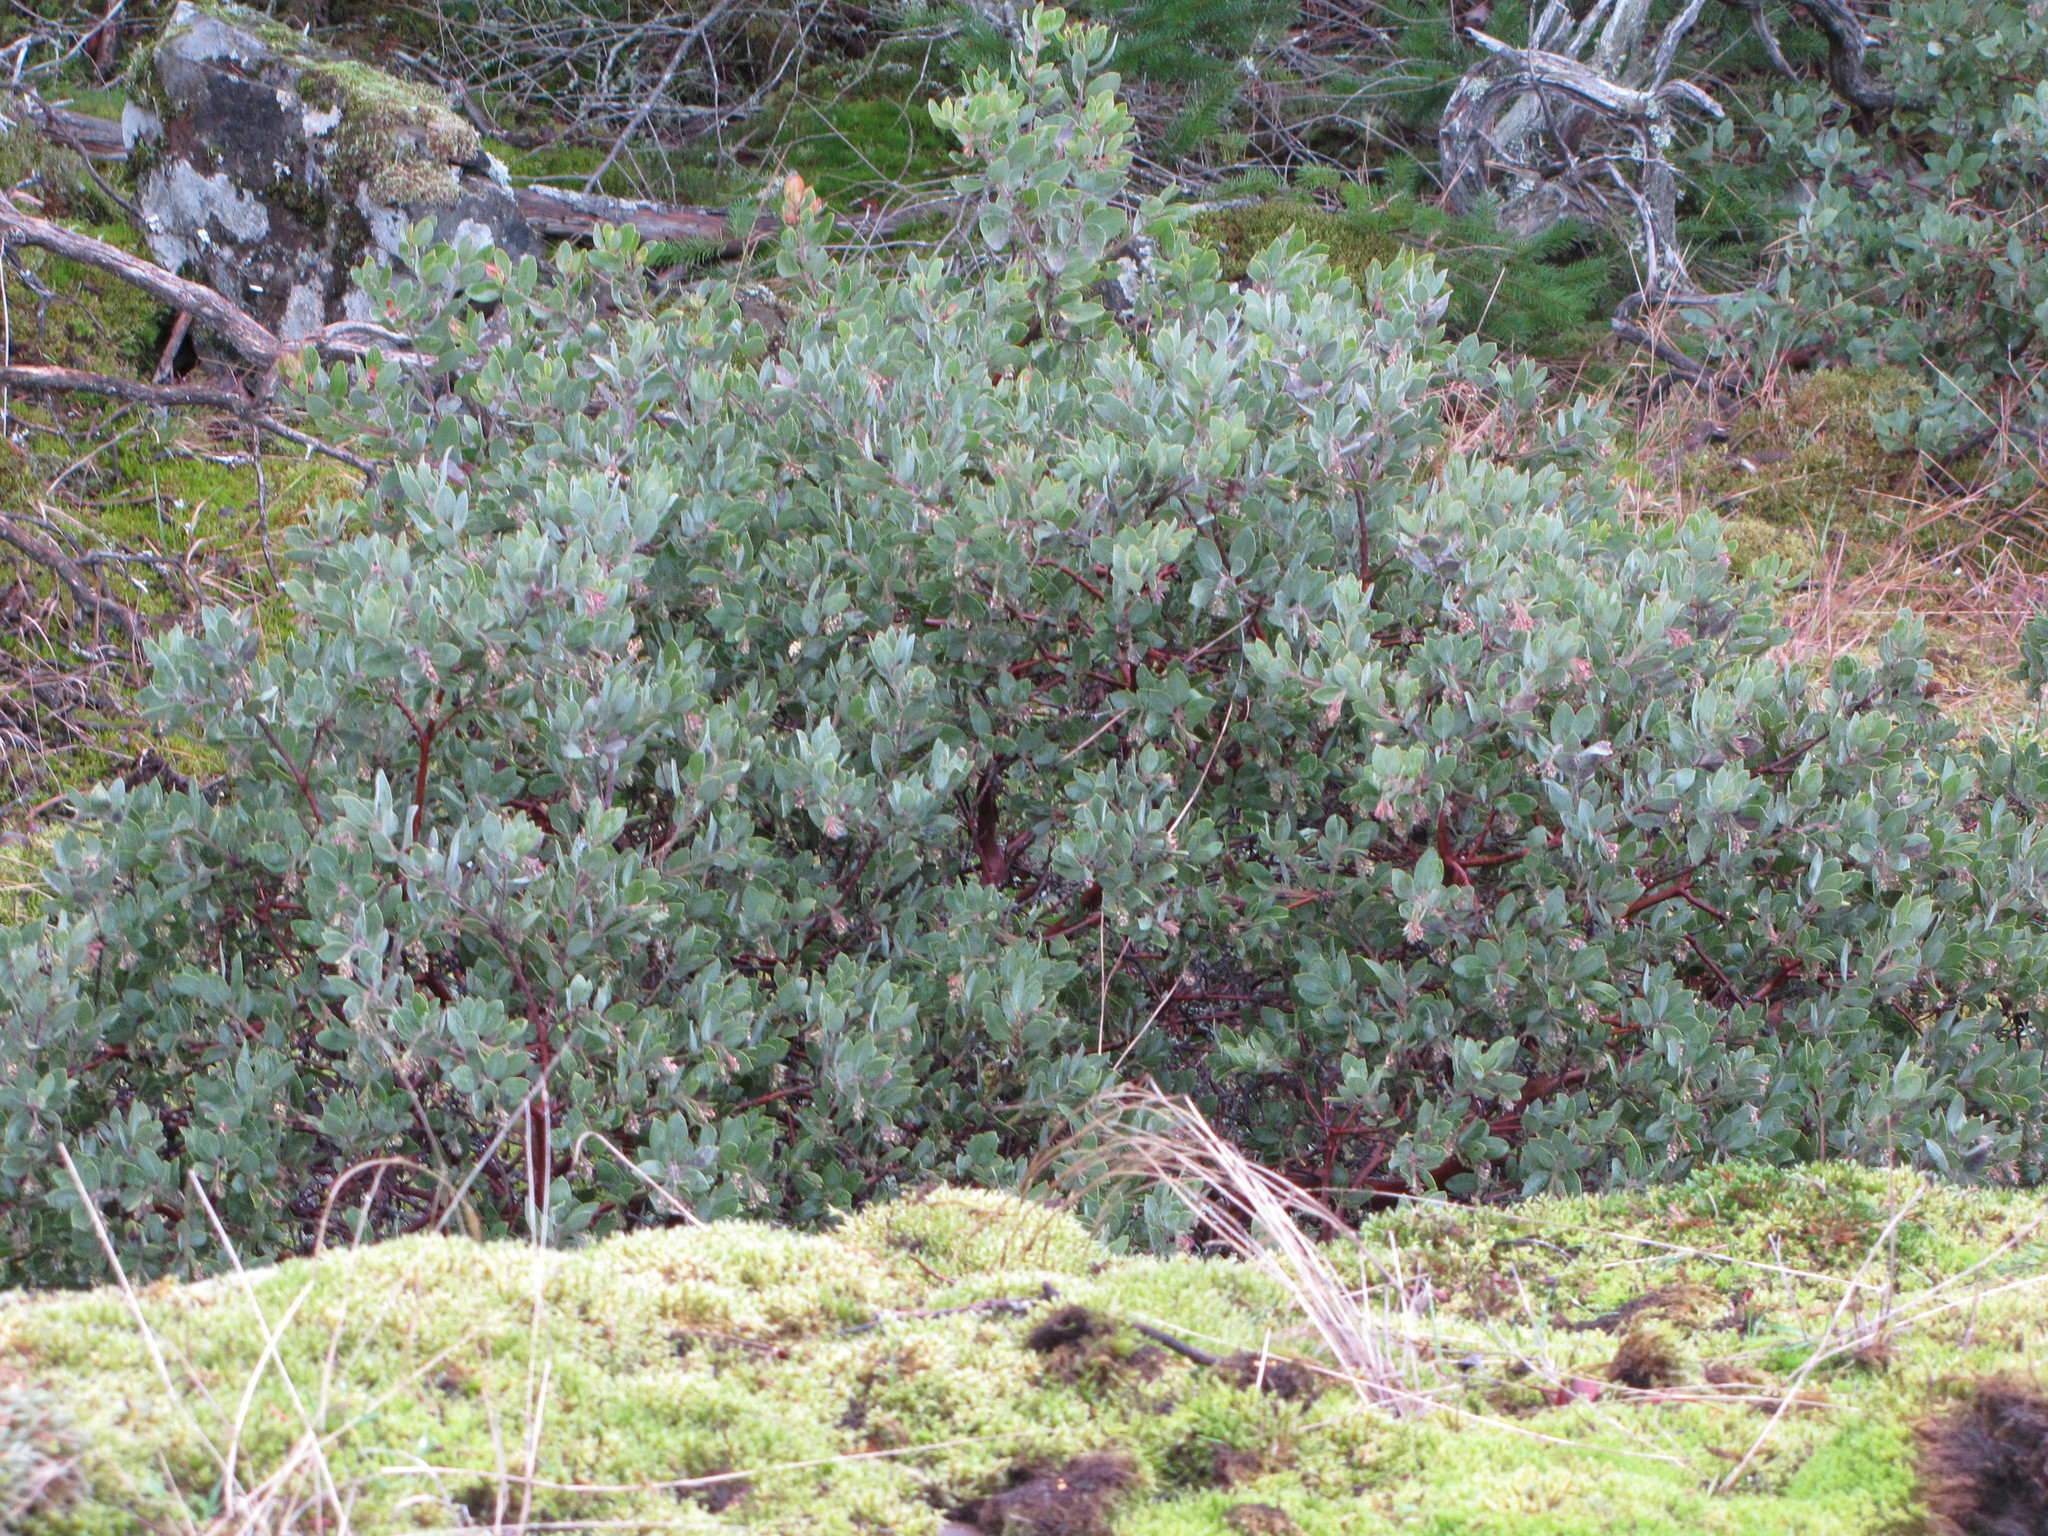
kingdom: Plantae
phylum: Tracheophyta
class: Magnoliopsida
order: Ericales
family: Ericaceae
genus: Arctostaphylos
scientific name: Arctostaphylos columbiana
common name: Bristly bearberry
